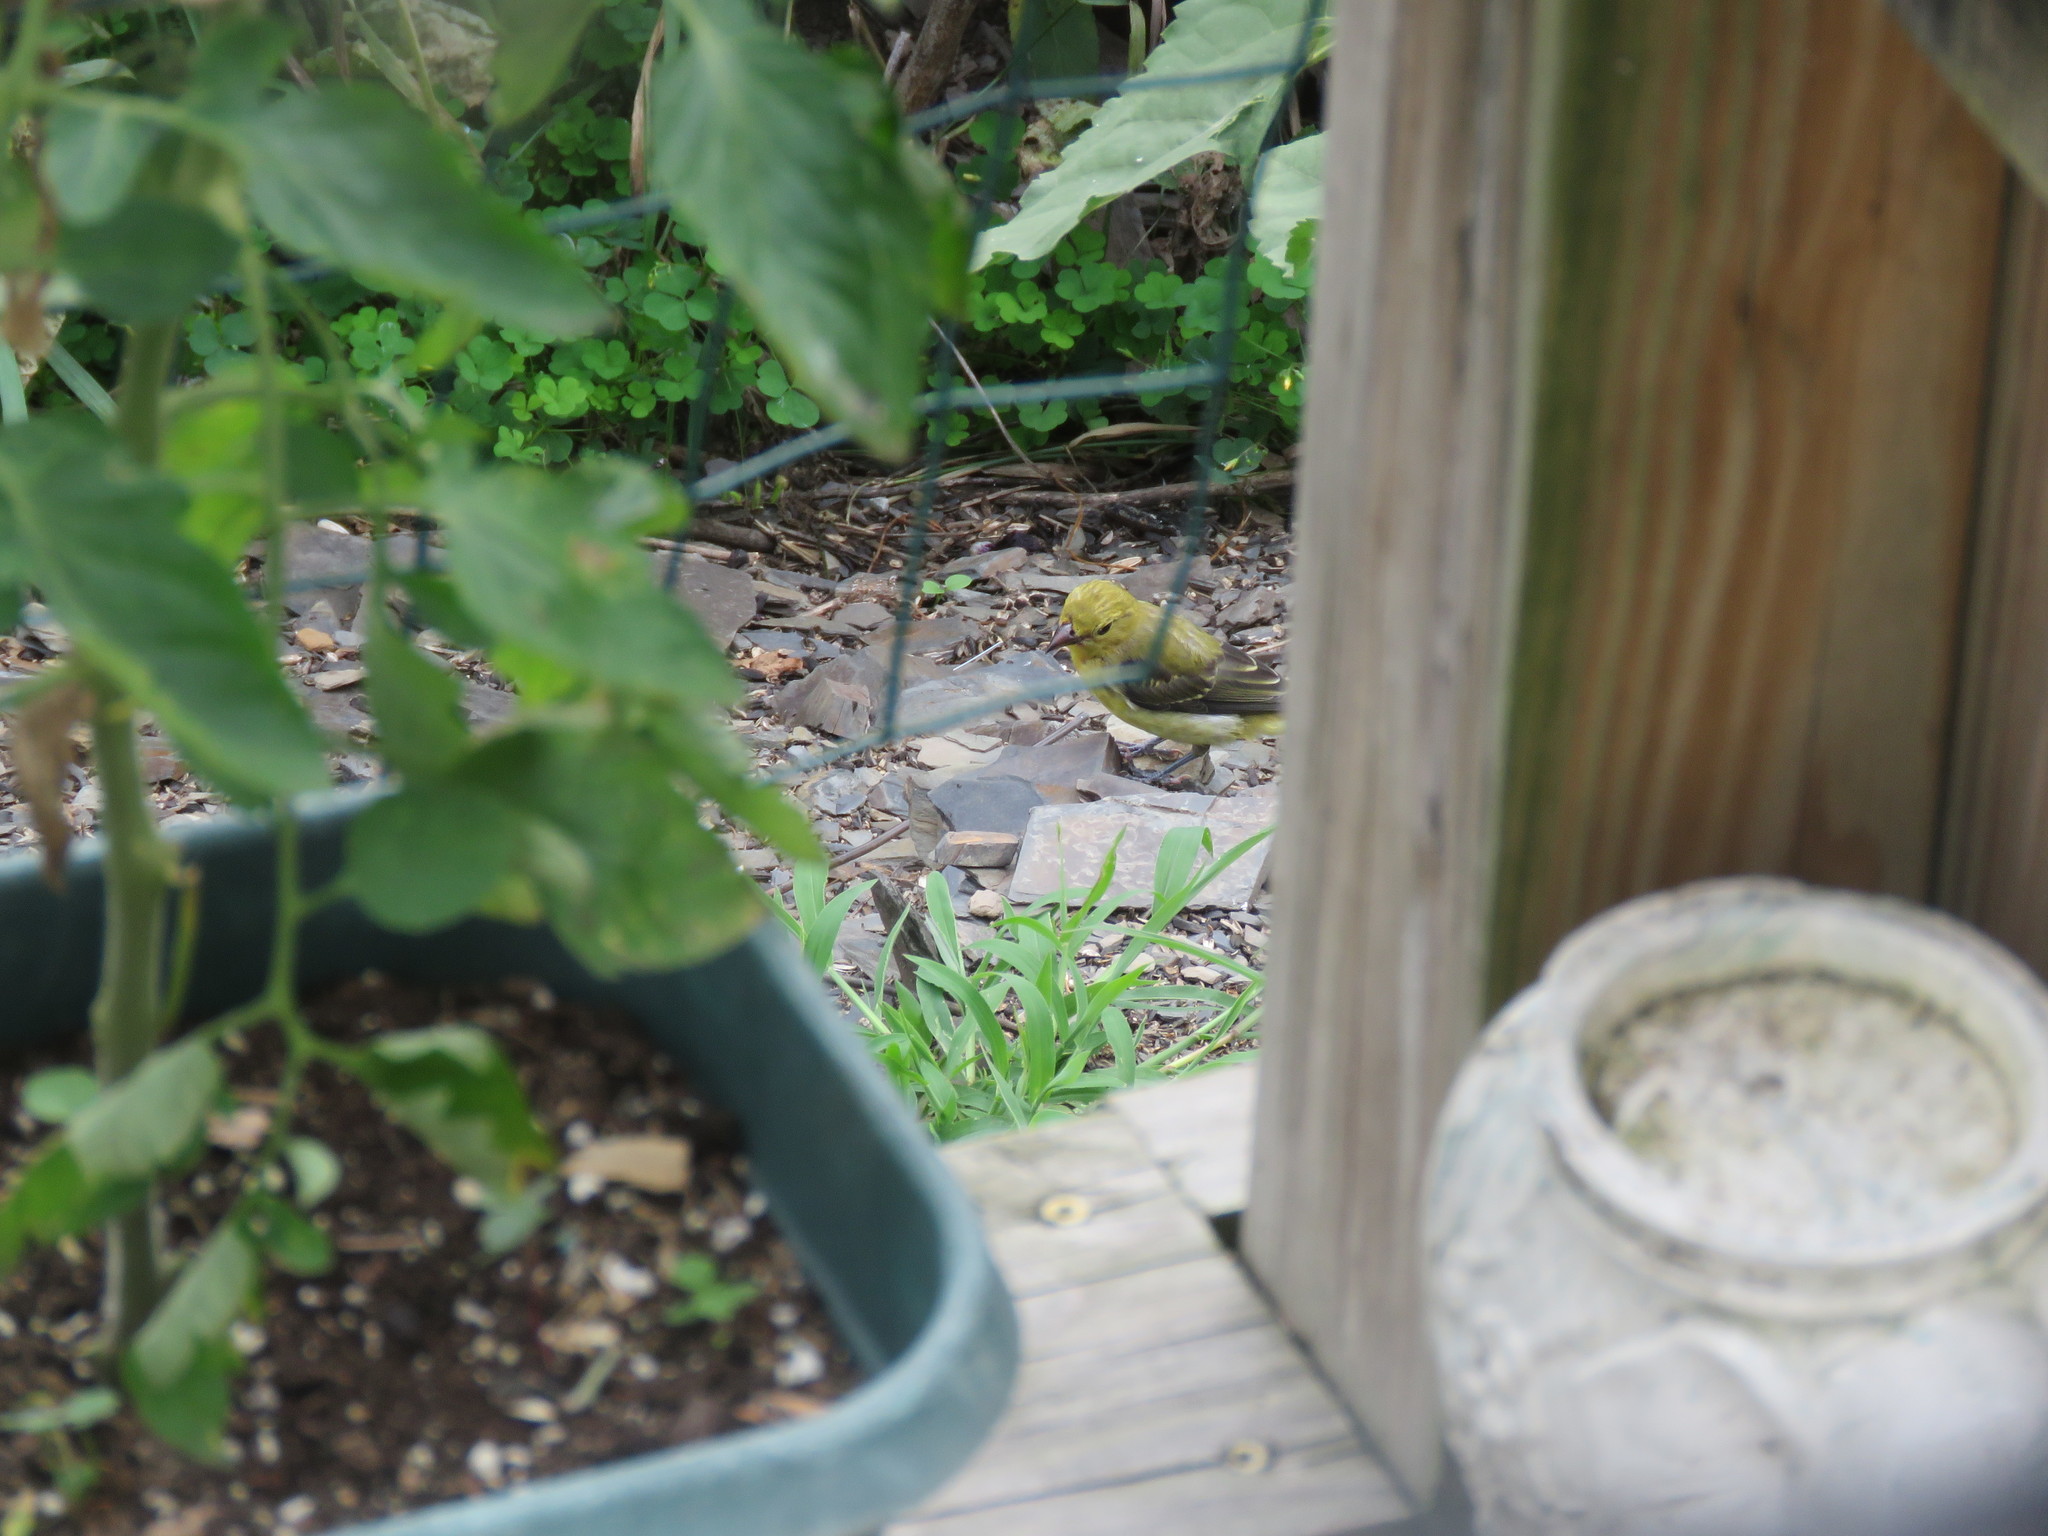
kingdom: Animalia
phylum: Chordata
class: Aves
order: Passeriformes
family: Cardinalidae
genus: Piranga
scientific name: Piranga olivacea
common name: Scarlet tanager
